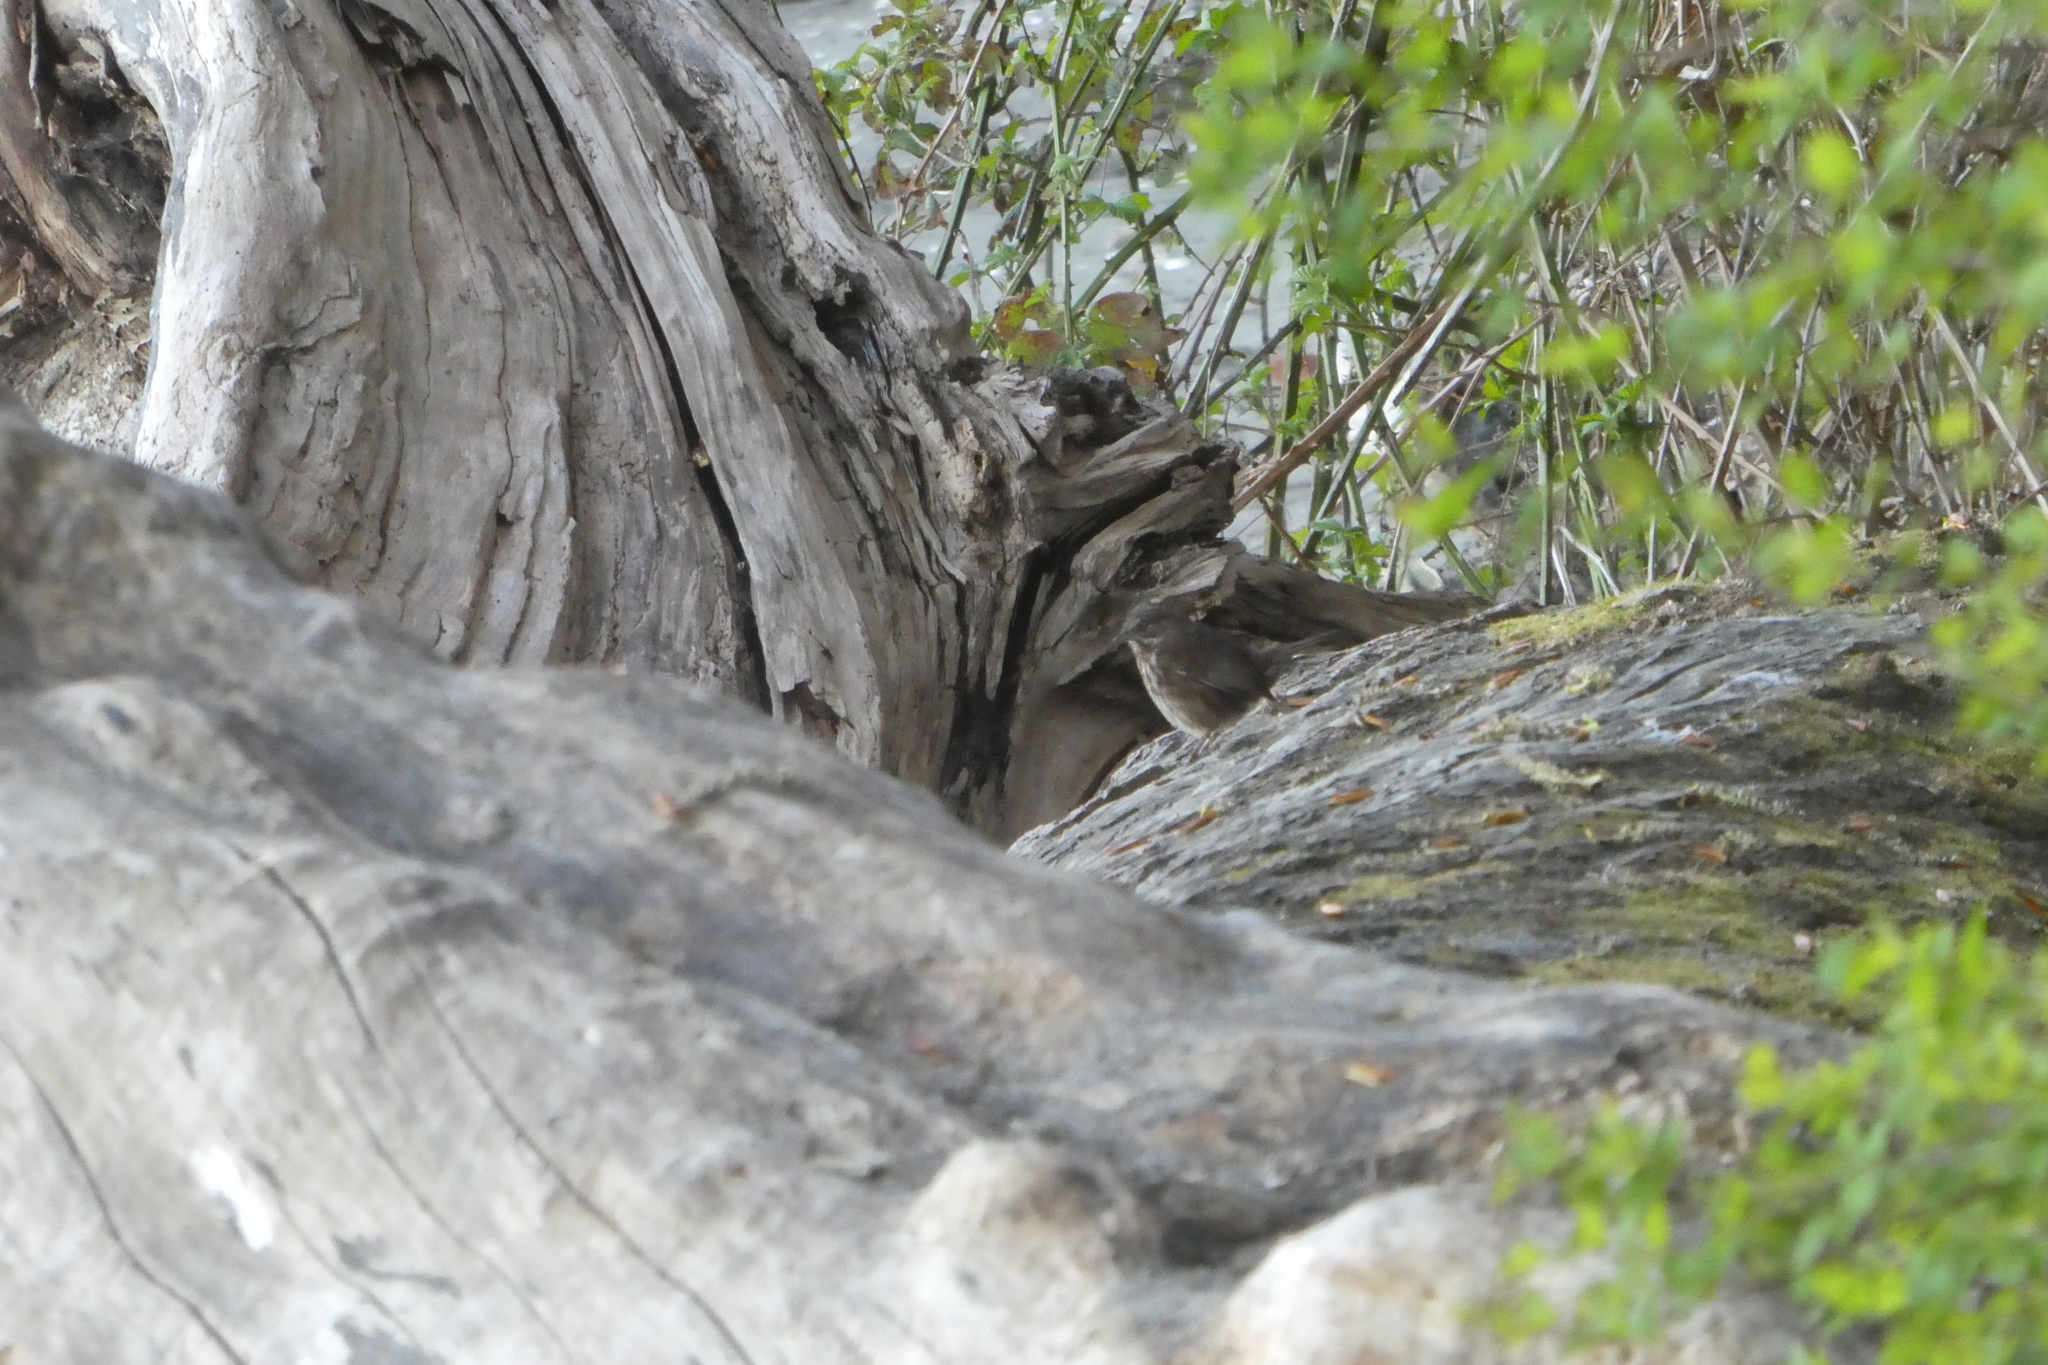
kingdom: Animalia
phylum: Chordata
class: Aves
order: Passeriformes
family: Passerellidae
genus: Melospiza
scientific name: Melospiza melodia
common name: Song sparrow
